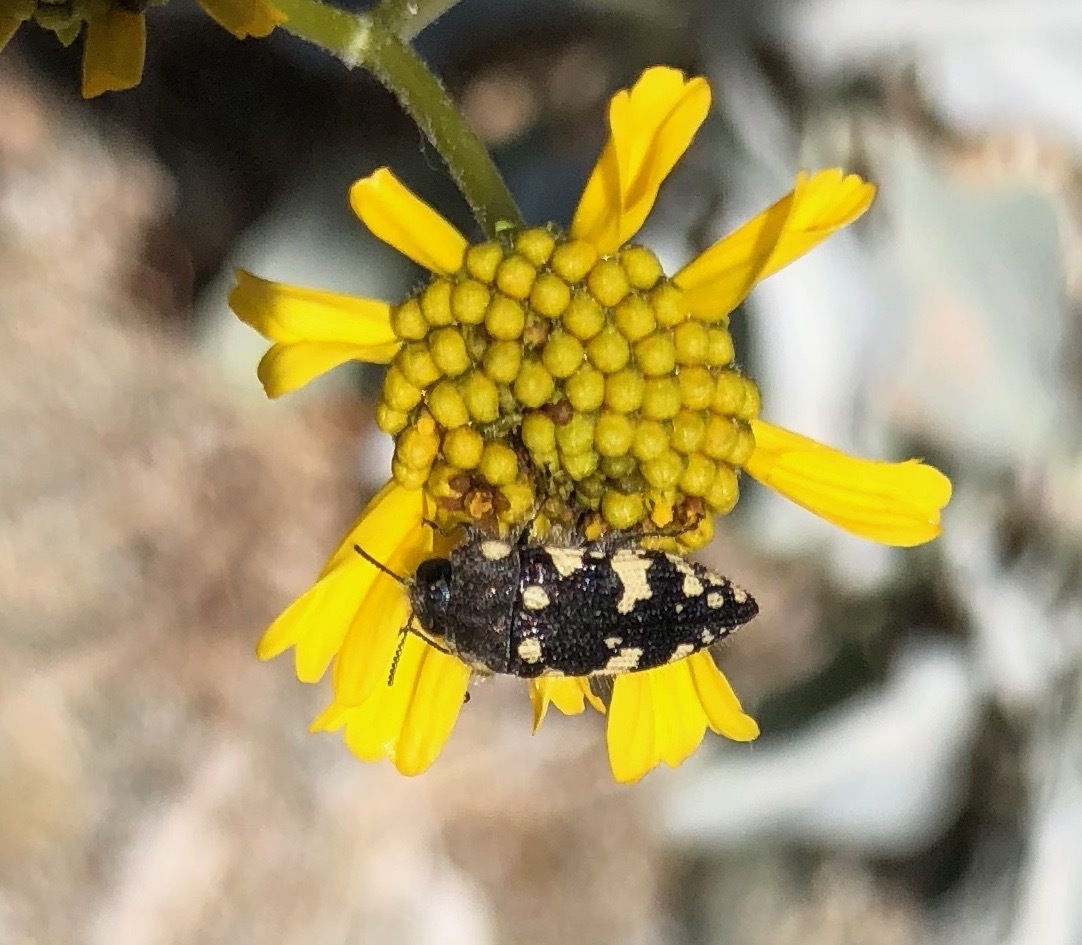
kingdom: Animalia
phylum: Arthropoda
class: Insecta
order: Coleoptera
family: Buprestidae
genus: Acmaeodera
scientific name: Acmaeodera vernalis
